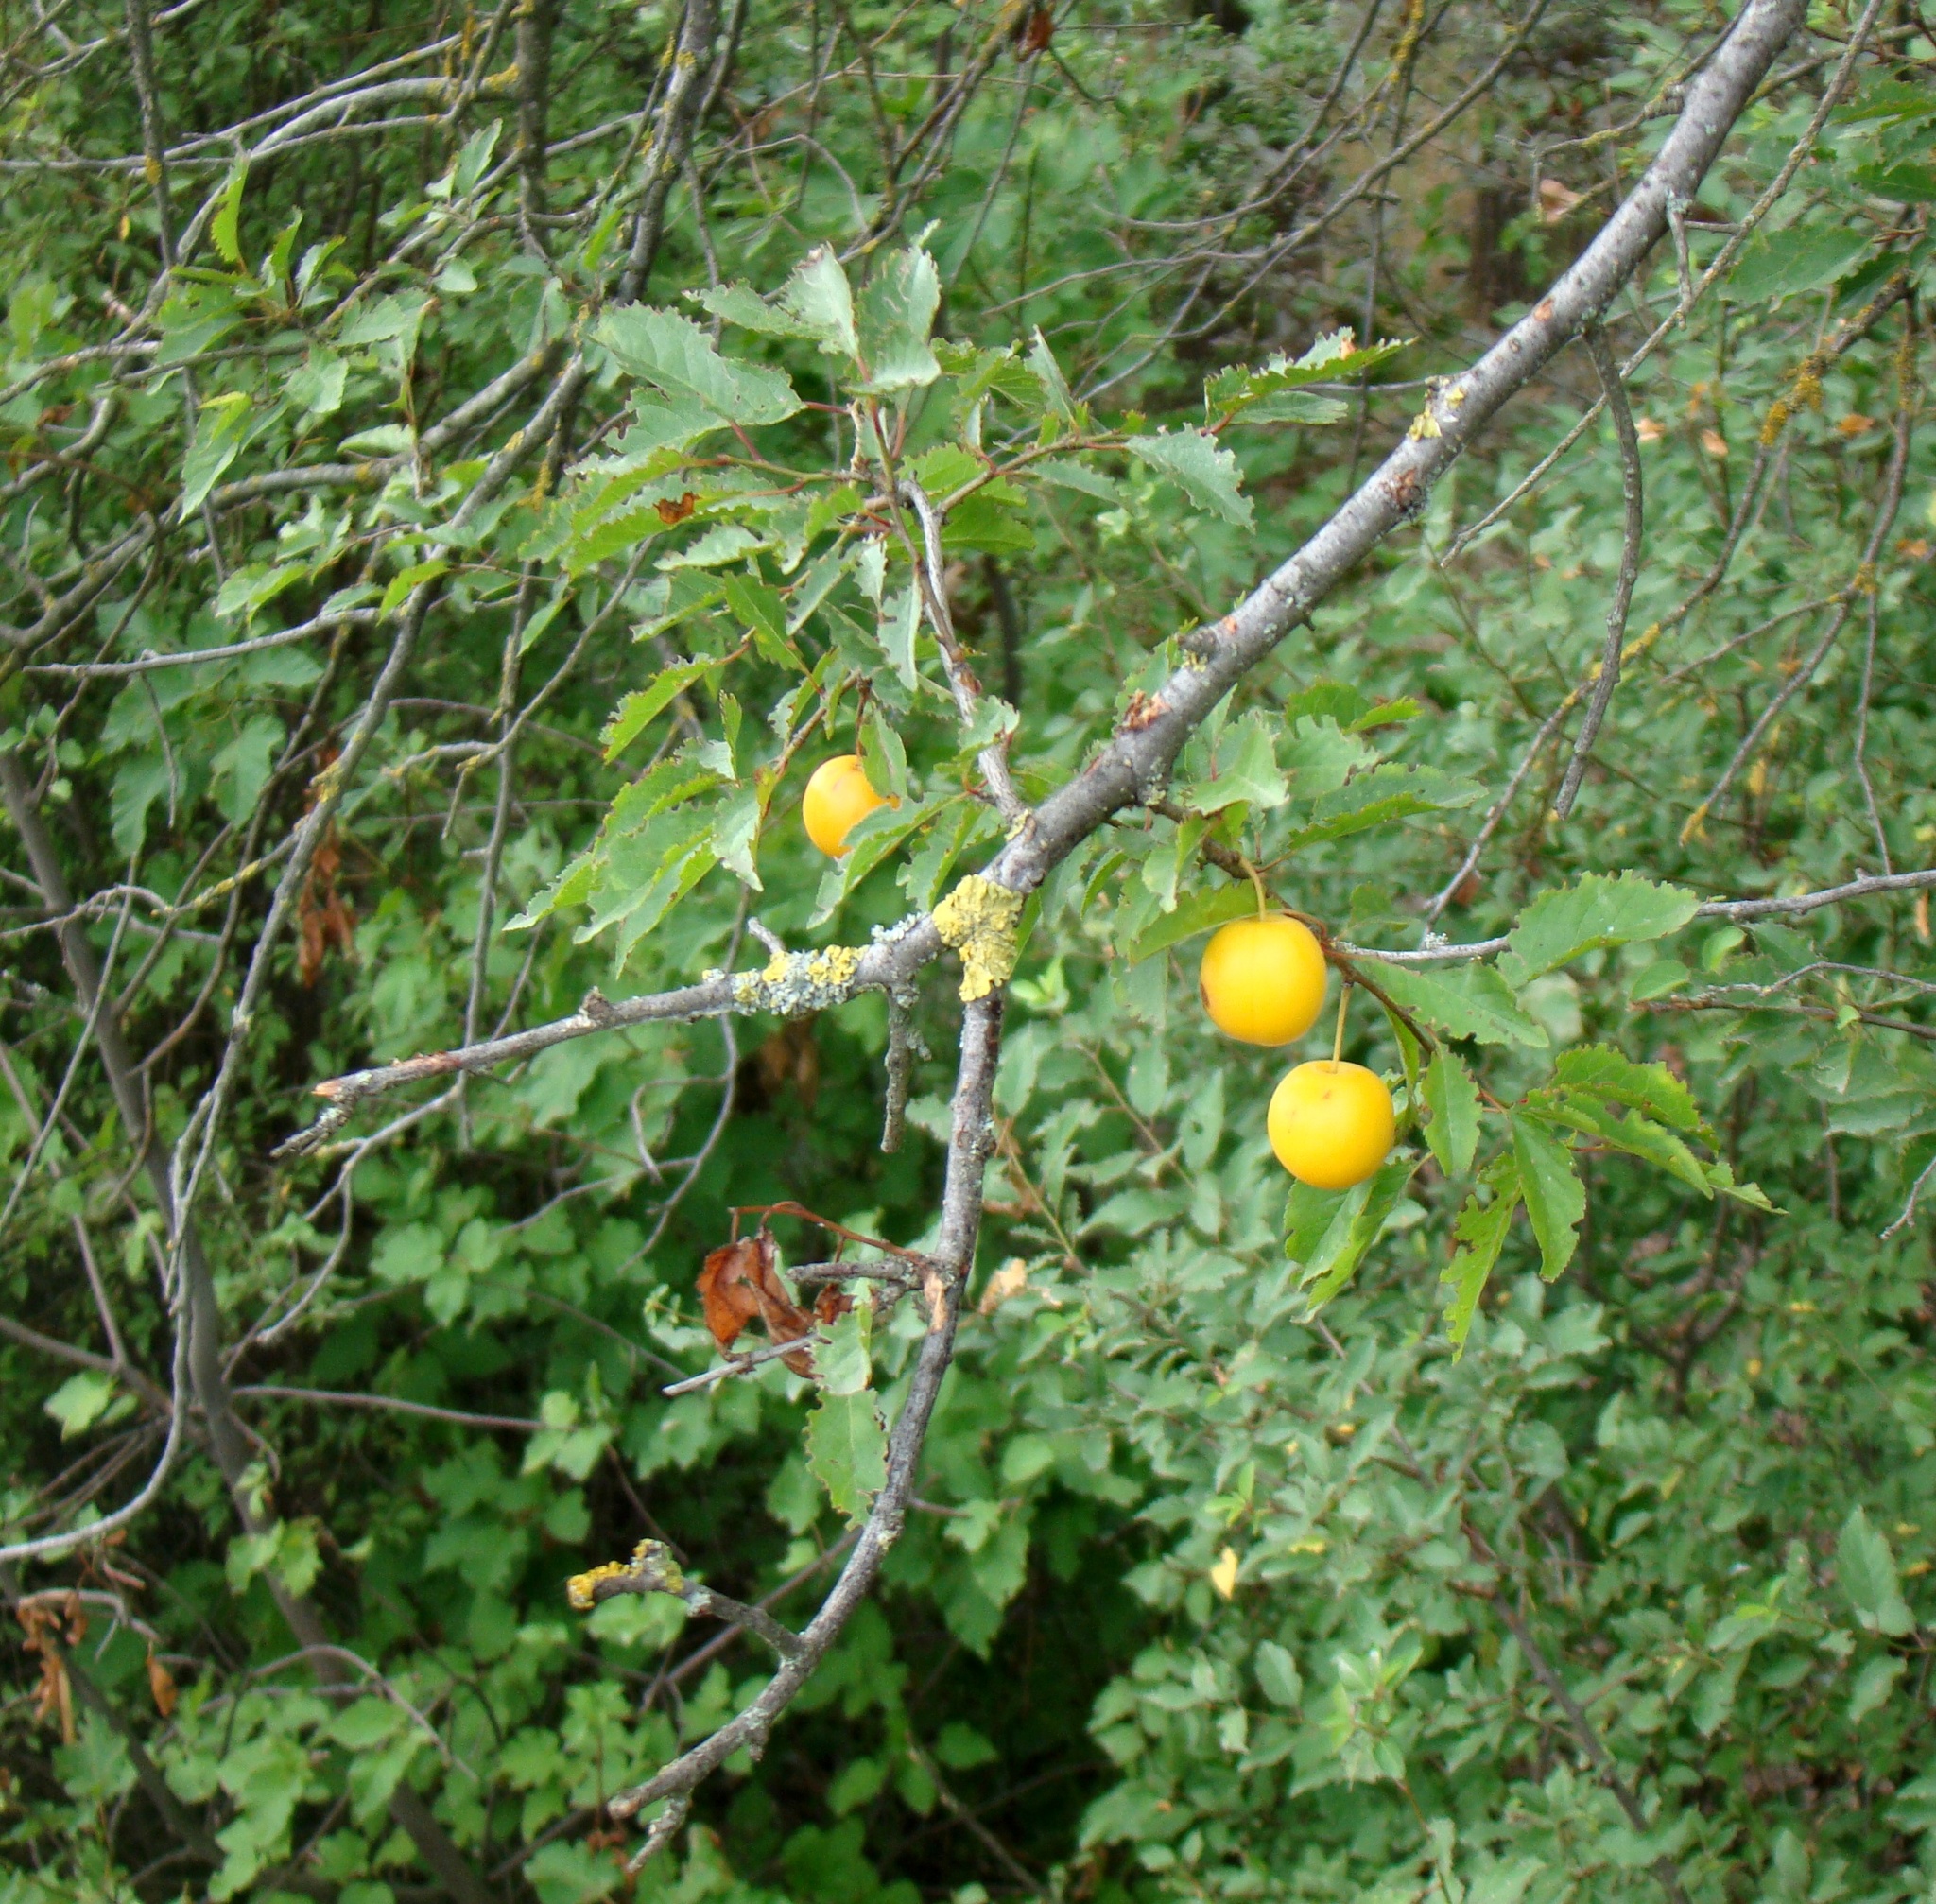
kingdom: Plantae
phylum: Tracheophyta
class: Magnoliopsida
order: Rosales
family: Rosaceae
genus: Prunus
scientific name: Prunus cerasifera
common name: Cherry plum
